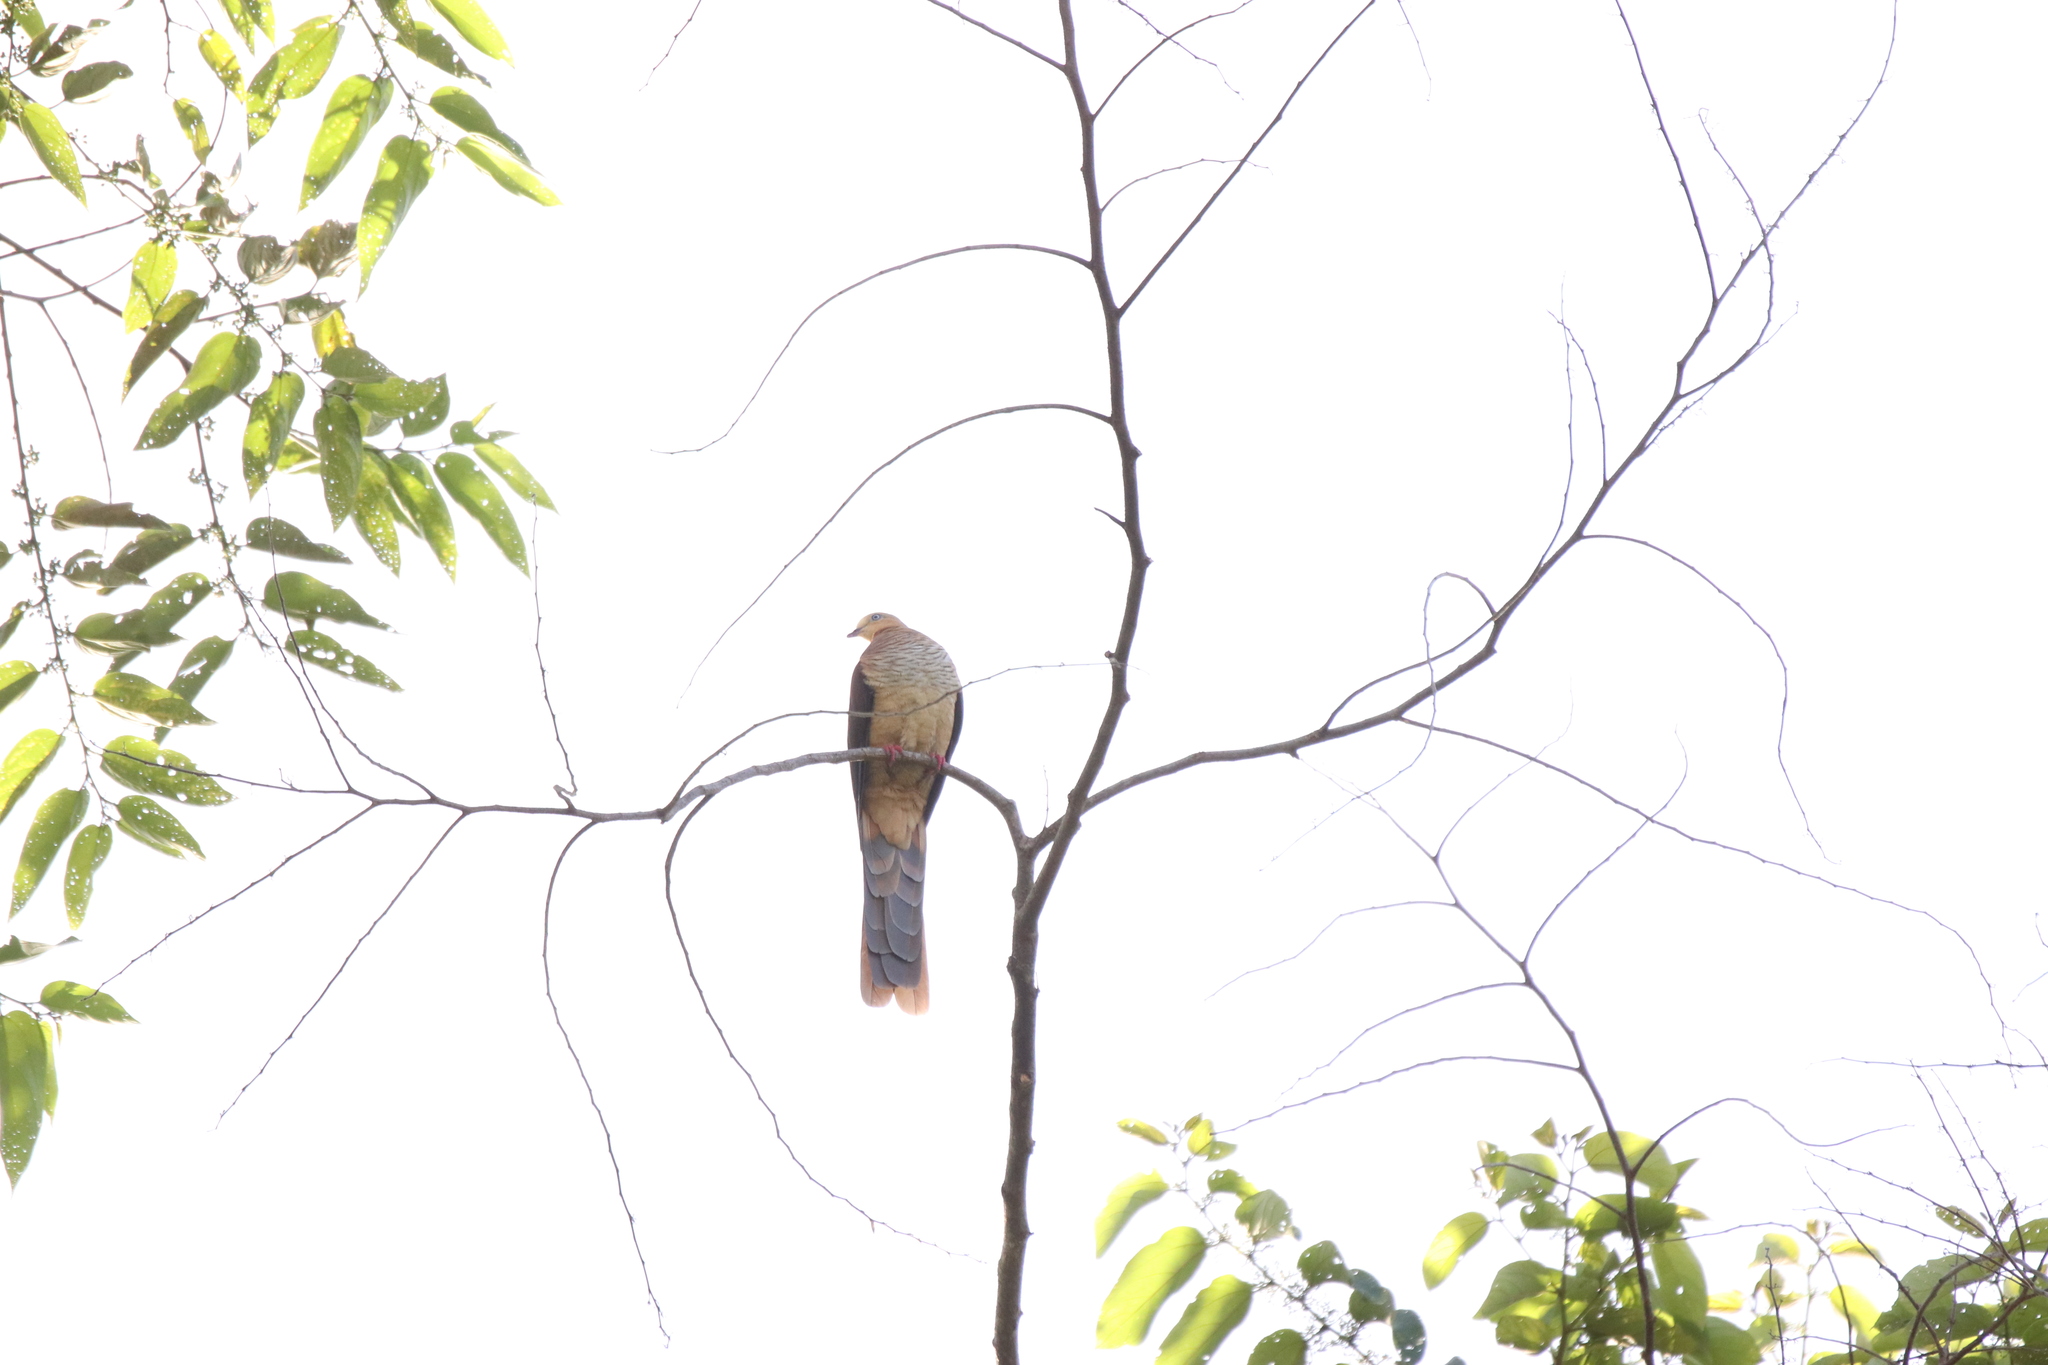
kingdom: Animalia
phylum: Chordata
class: Aves
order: Columbiformes
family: Columbidae
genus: Macropygia
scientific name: Macropygia doreya
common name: Sultan's cuckoo-dove
